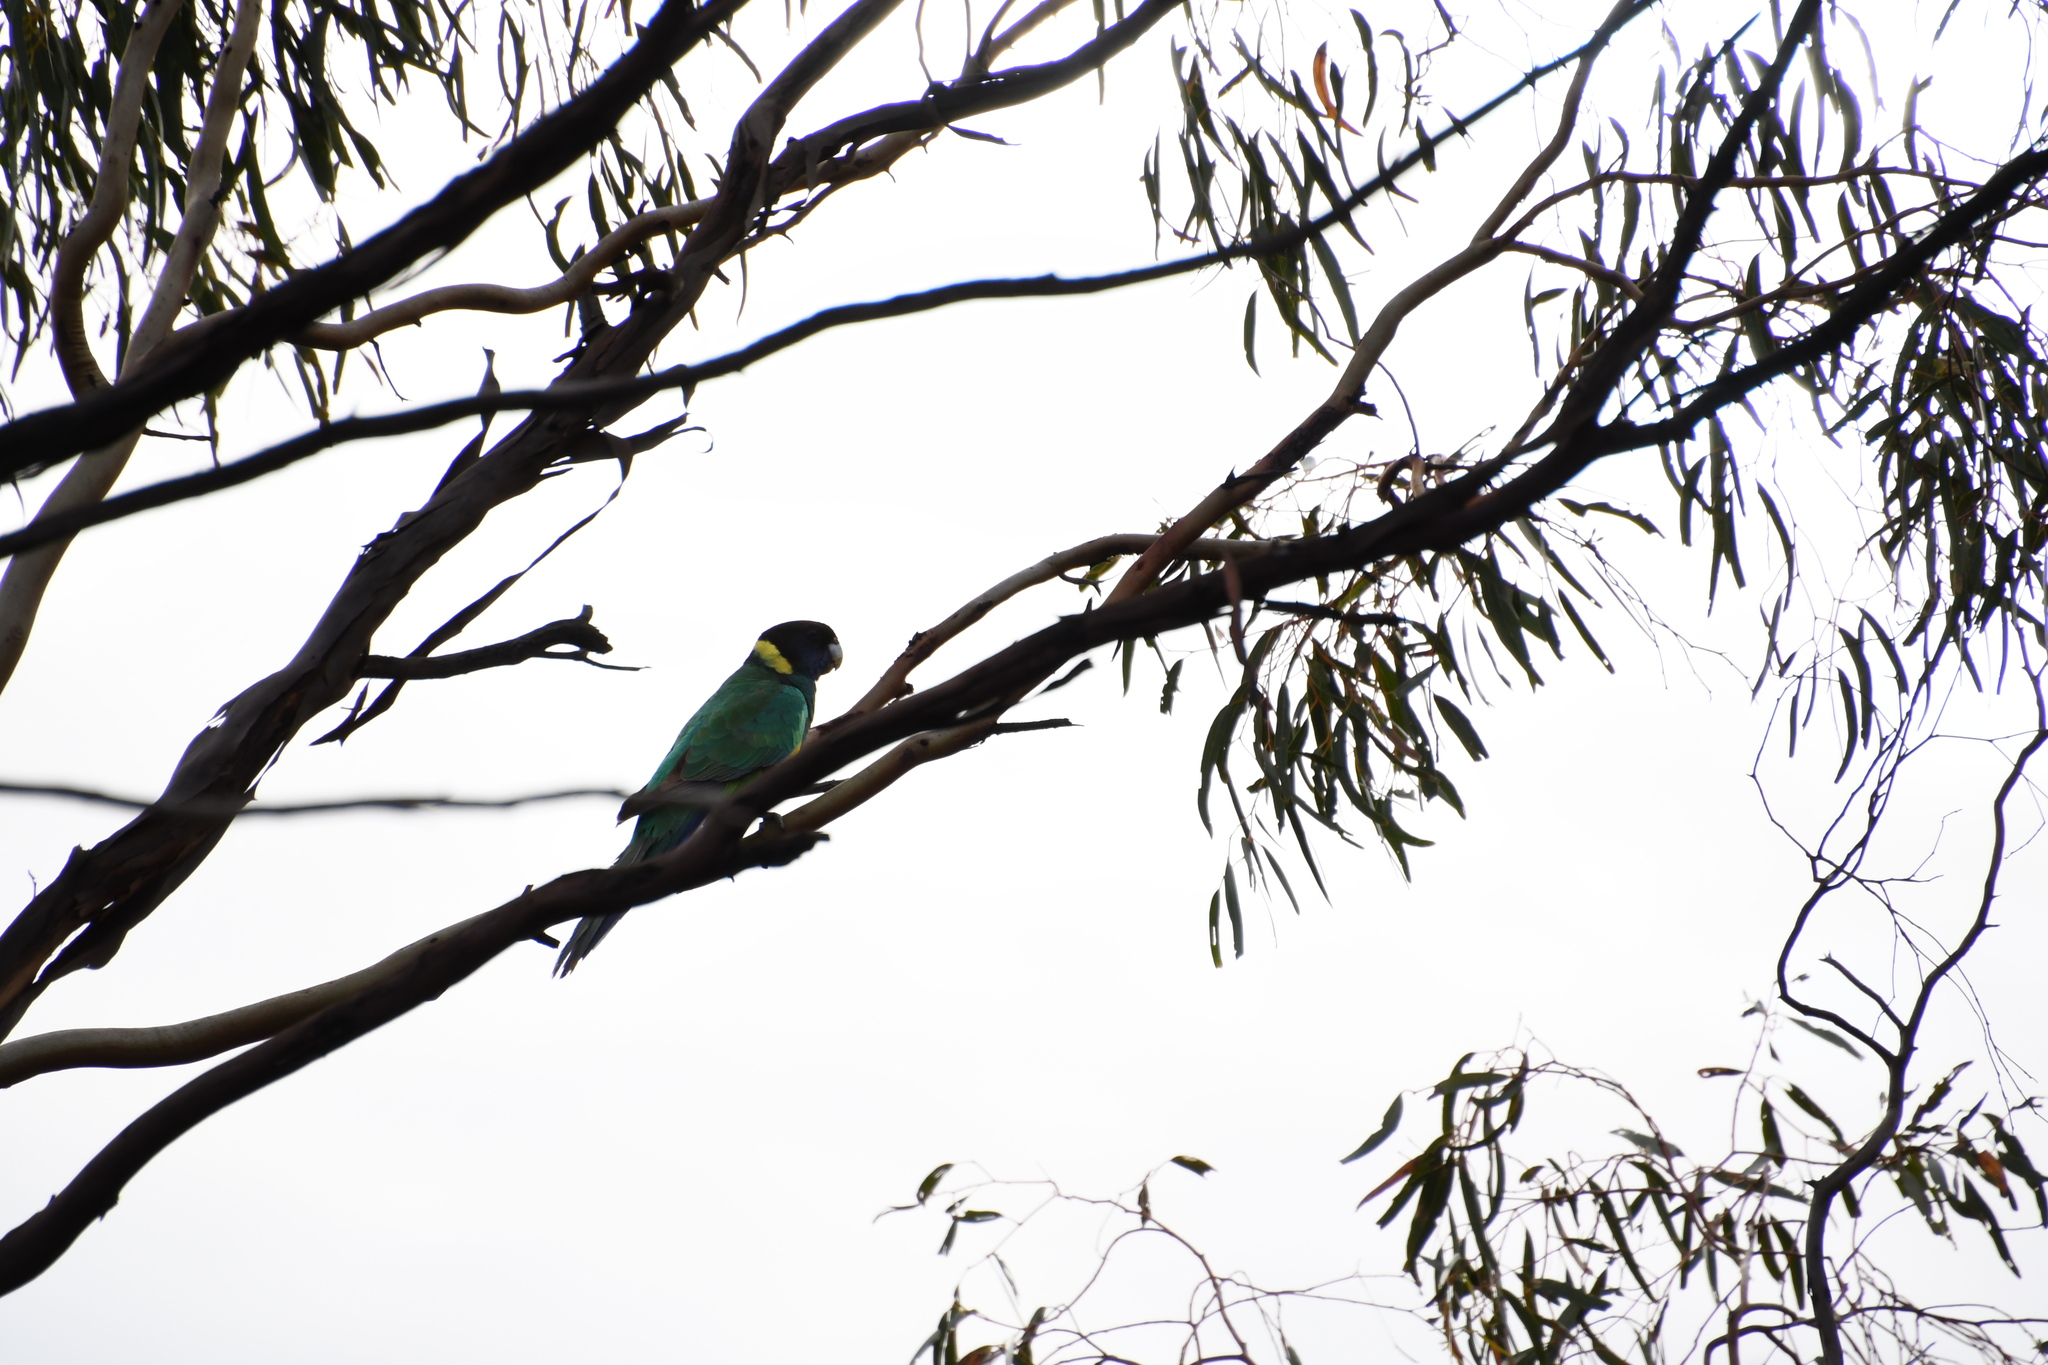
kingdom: Animalia
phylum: Chordata
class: Aves
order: Psittaciformes
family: Psittacidae
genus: Barnardius
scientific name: Barnardius zonarius
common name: Australian ringneck
